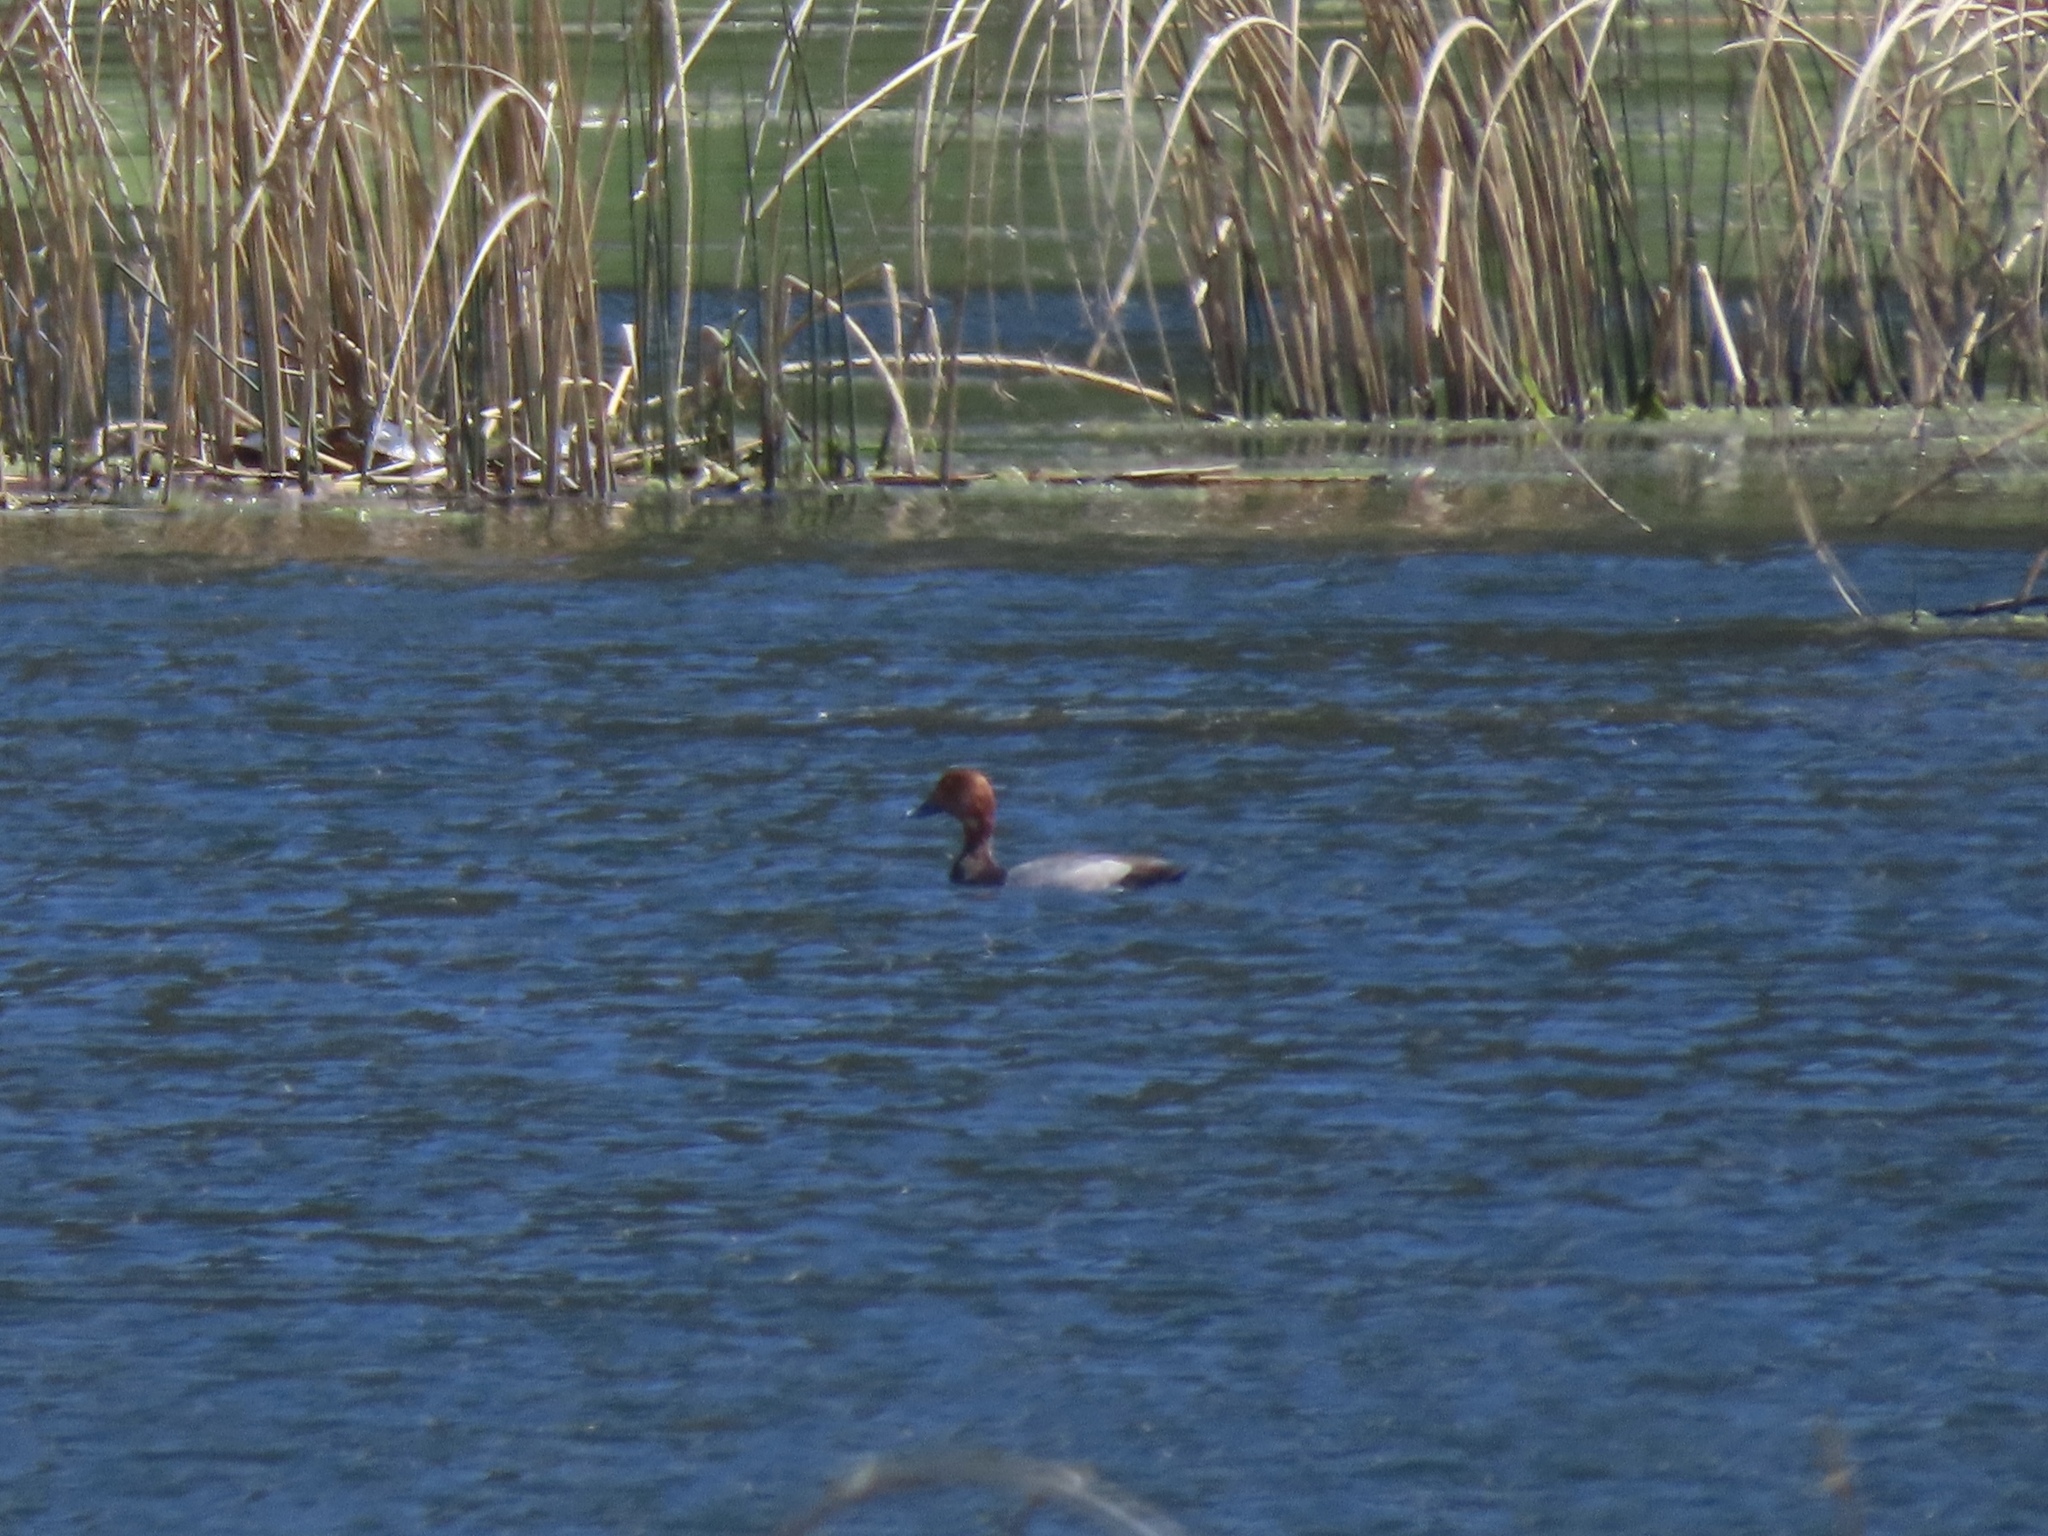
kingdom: Animalia
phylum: Chordata
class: Aves
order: Anseriformes
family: Anatidae
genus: Aythya
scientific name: Aythya americana
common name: Redhead
